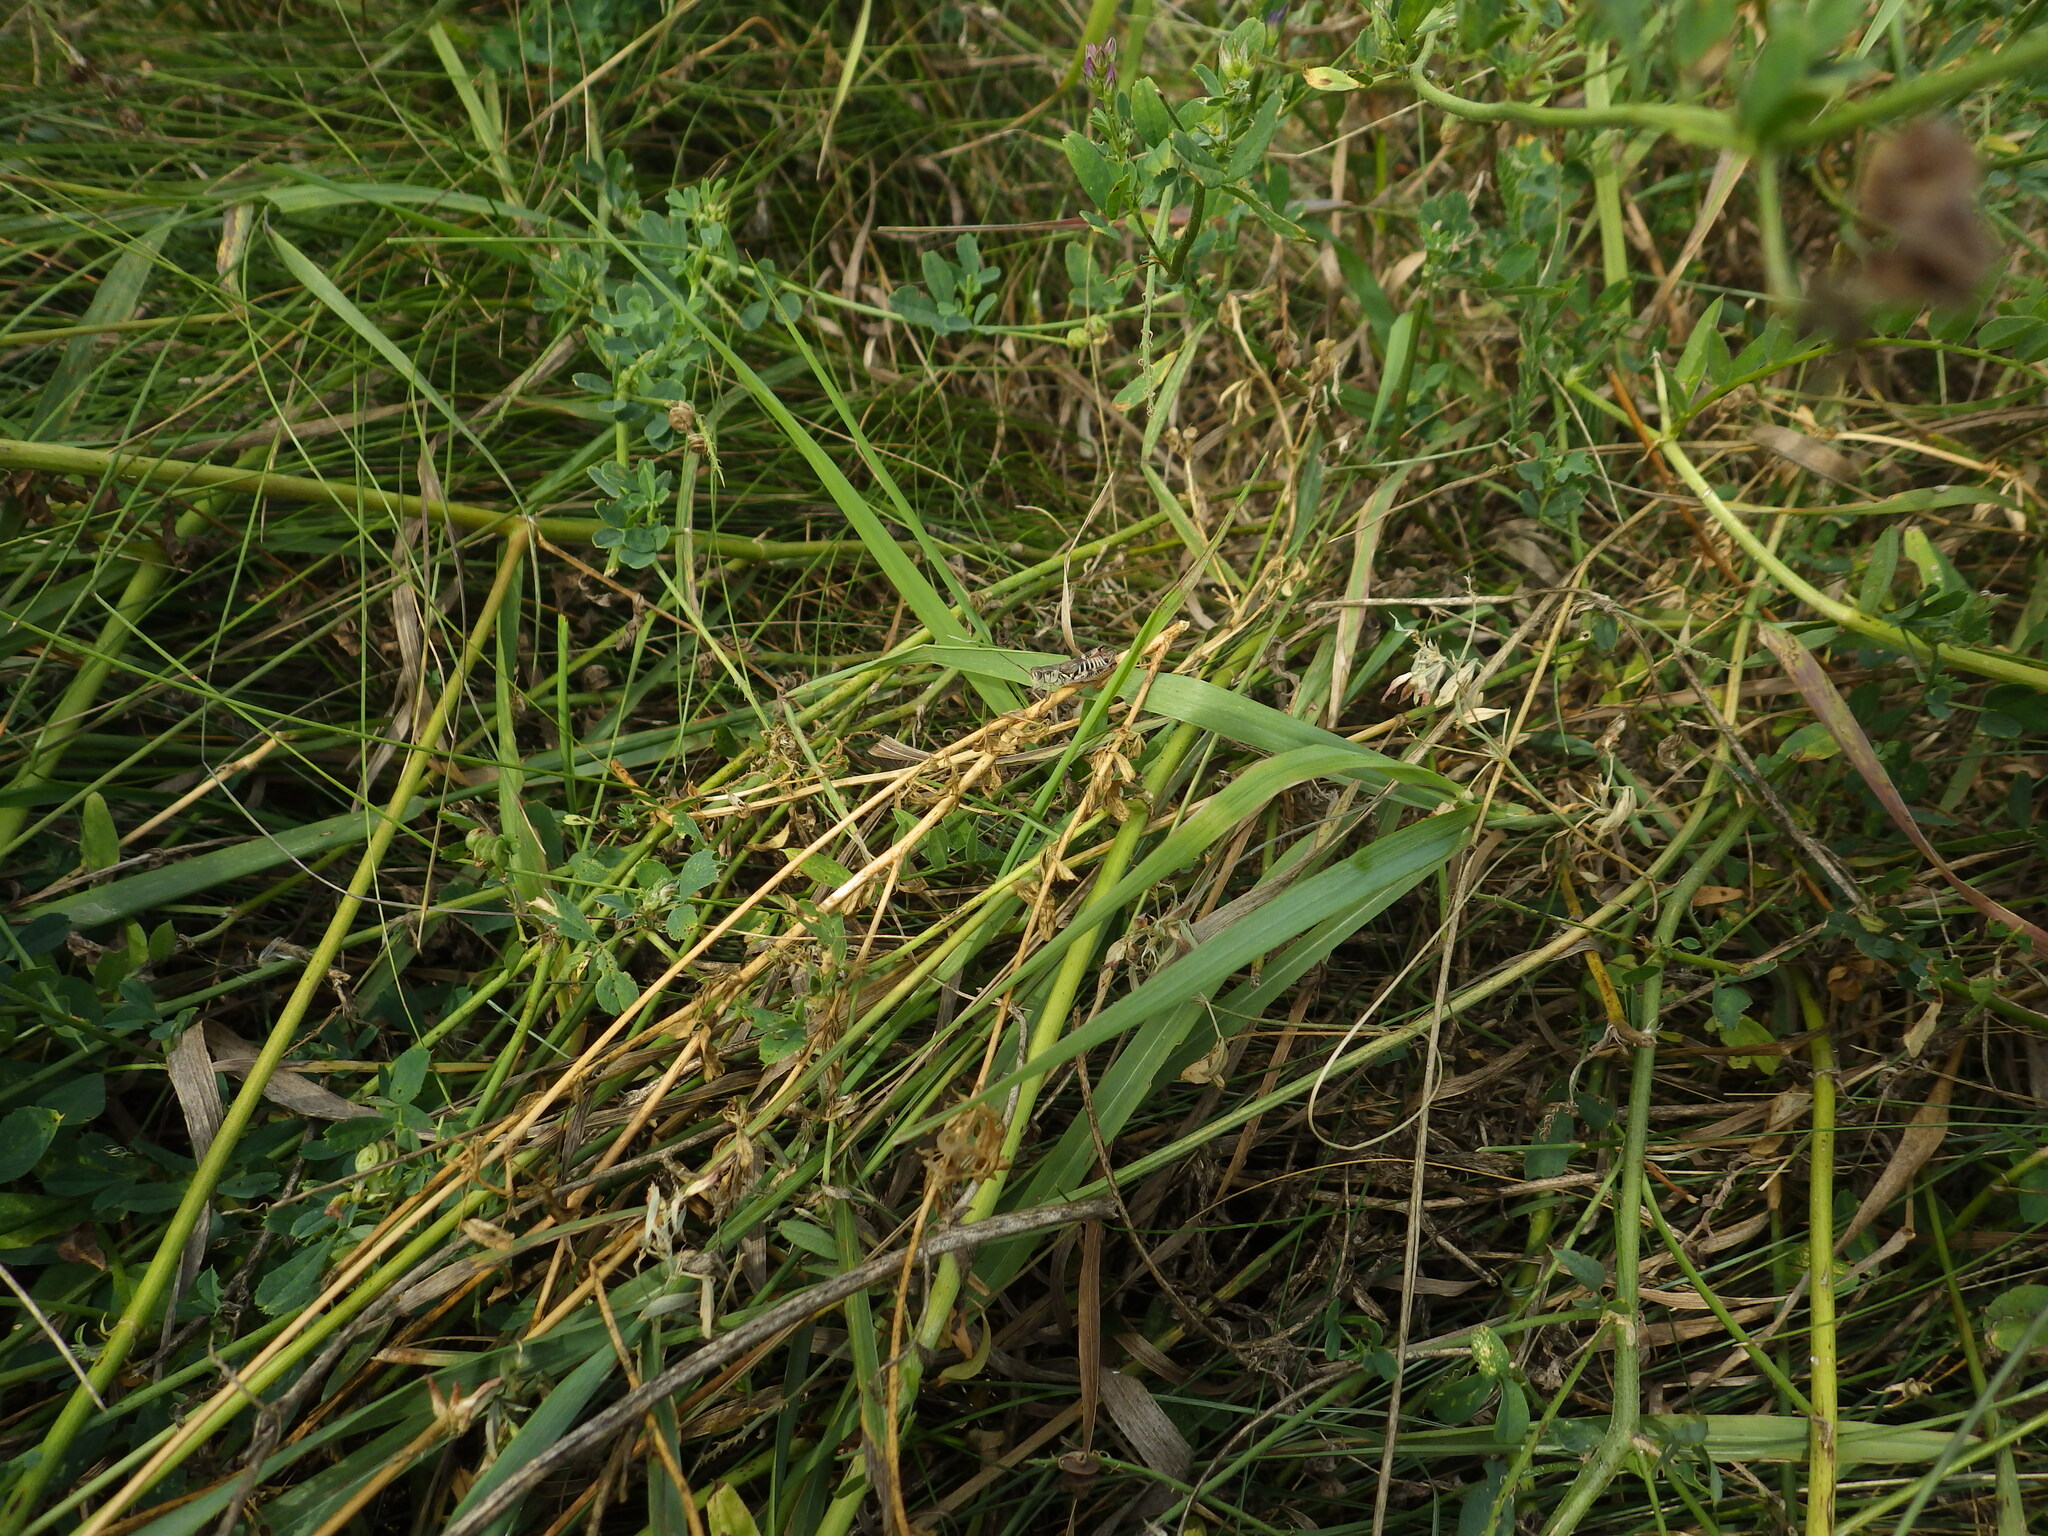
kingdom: Animalia
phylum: Arthropoda
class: Insecta
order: Orthoptera
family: Acrididae
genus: Melanoplus
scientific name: Melanoplus dawsoni
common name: Dawson grasshopper
